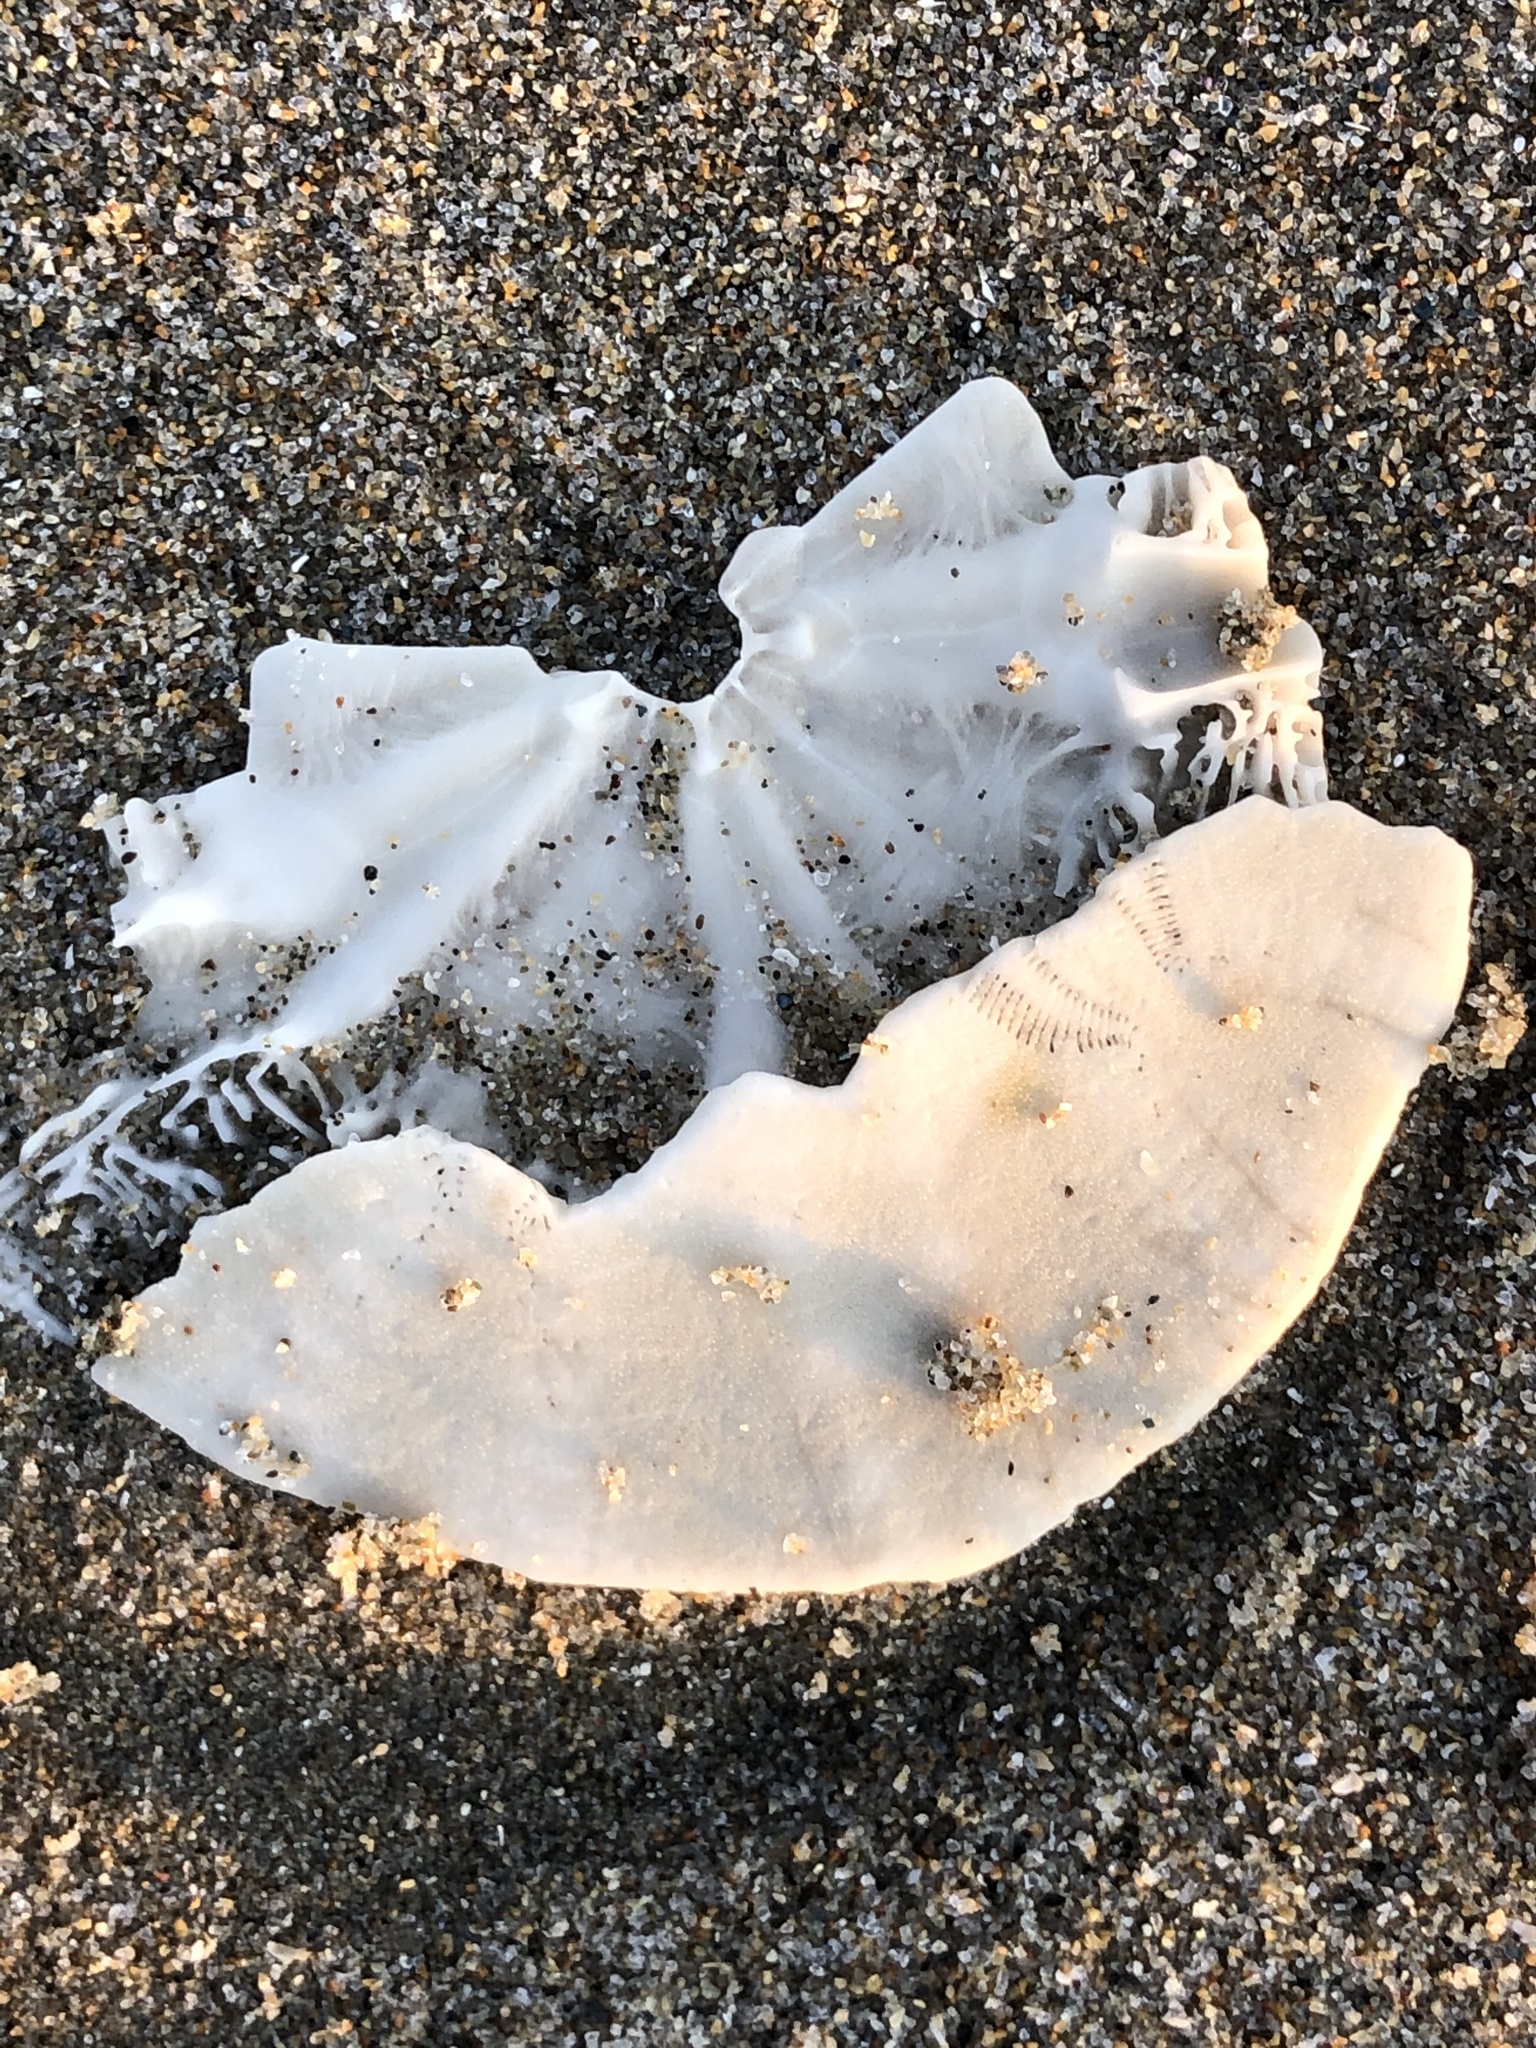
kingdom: Animalia
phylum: Echinodermata
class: Echinoidea
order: Echinolampadacea
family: Dendrasteridae
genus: Dendraster
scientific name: Dendraster excentricus
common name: Eccentric sand dollar sea urchin
